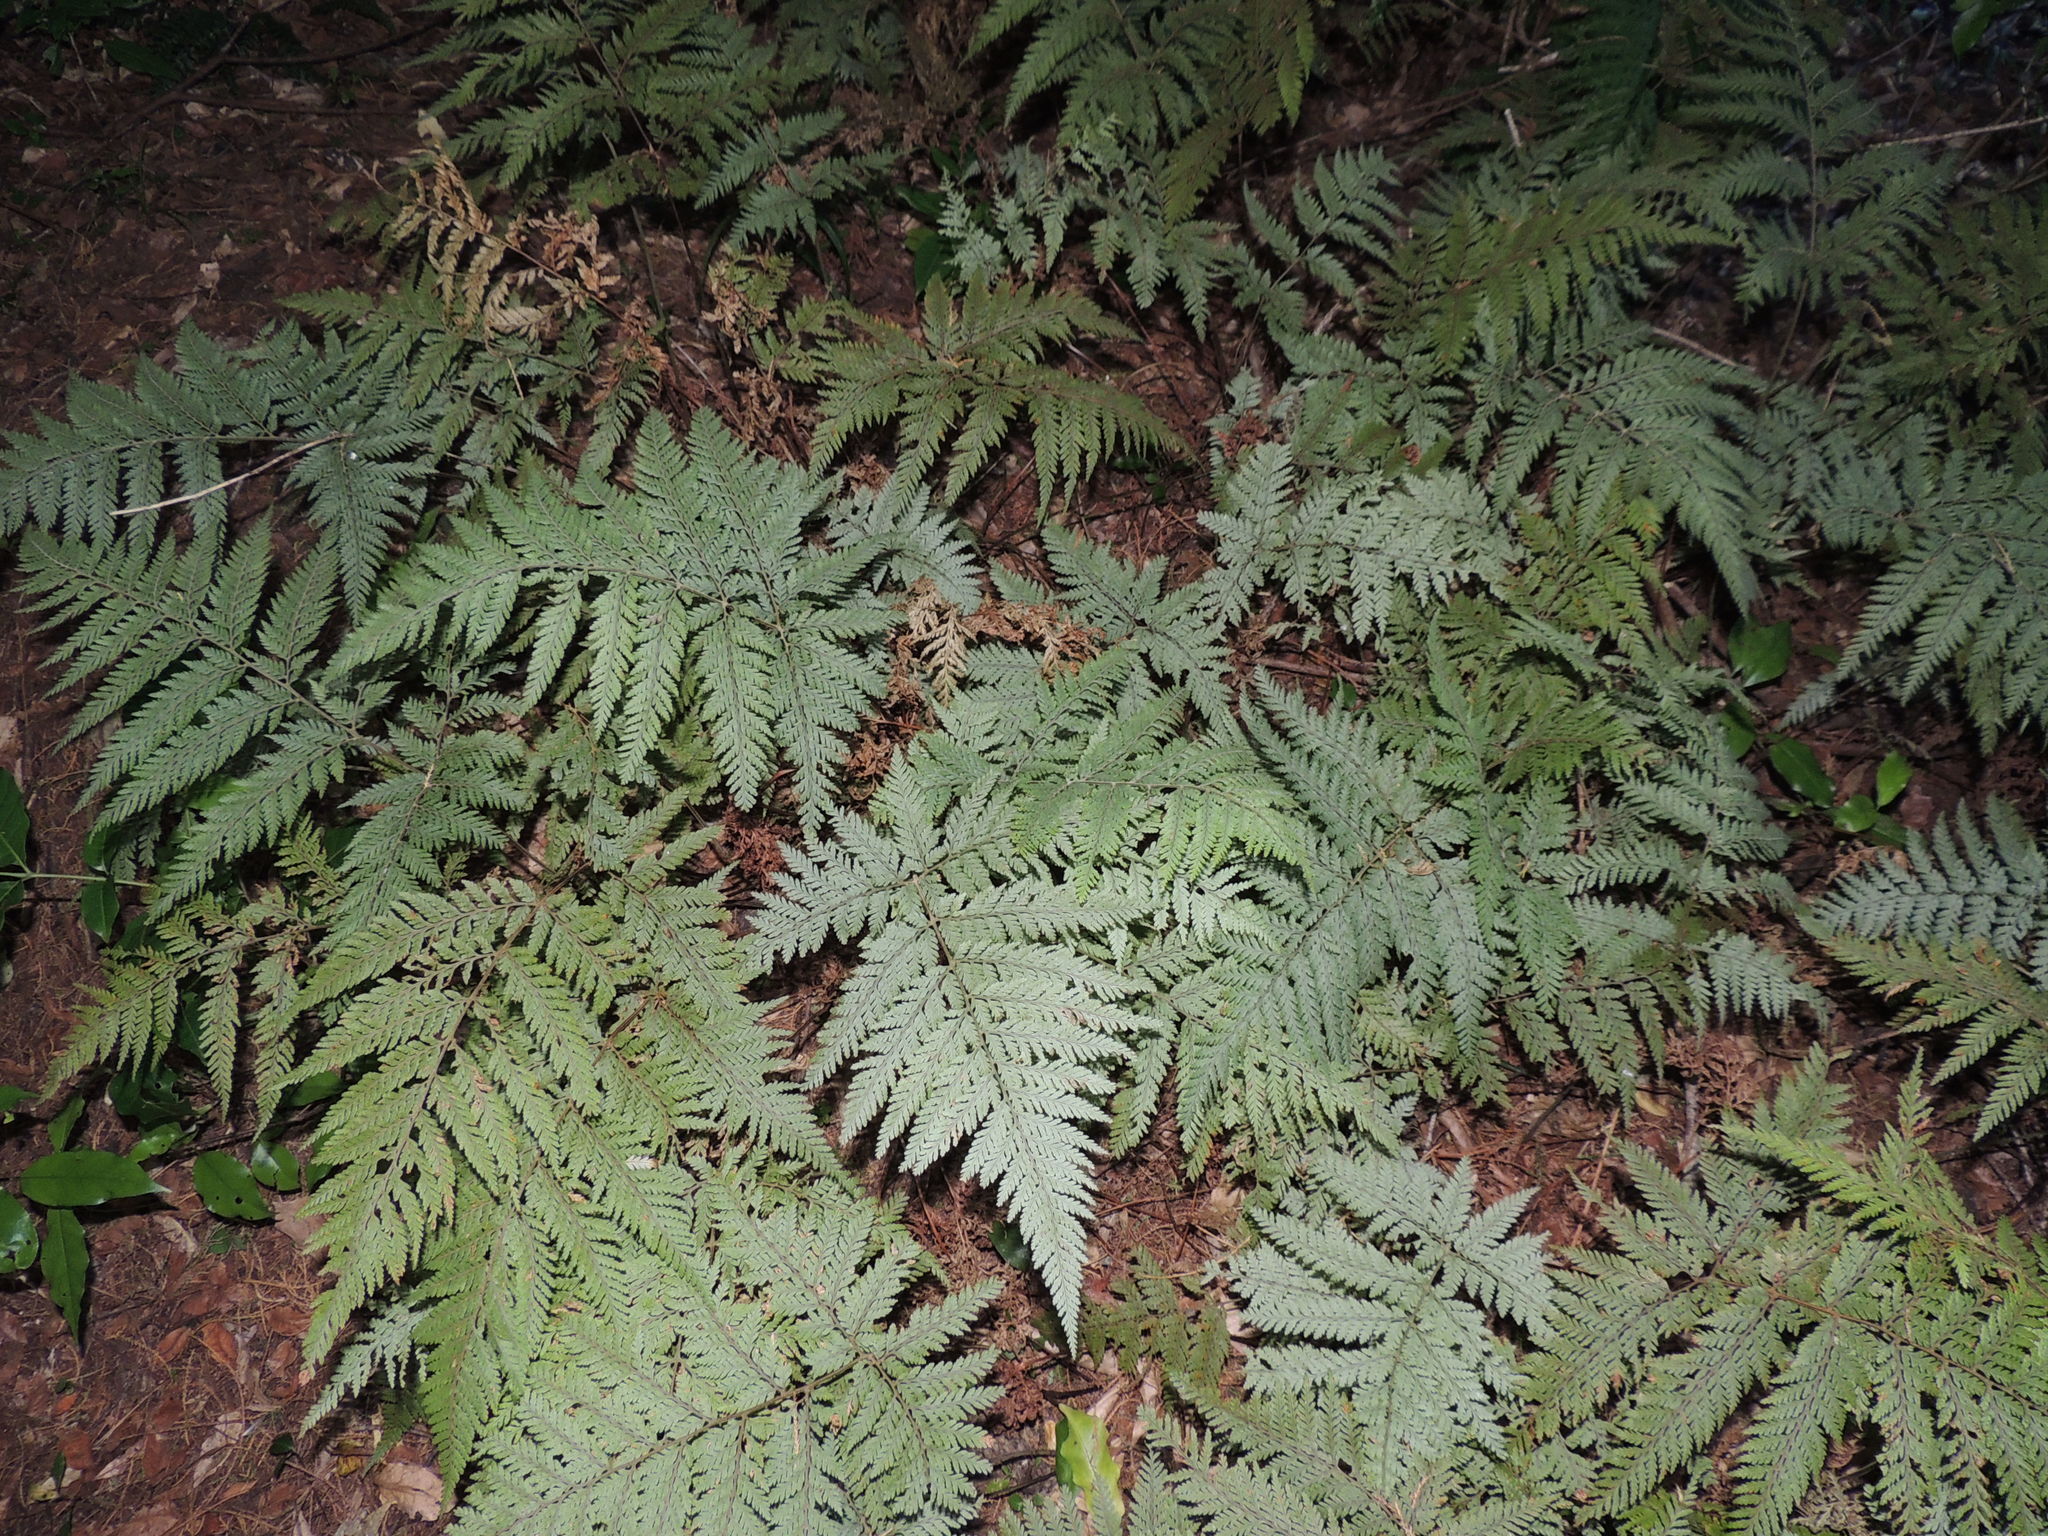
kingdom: Plantae
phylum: Tracheophyta
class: Polypodiopsida
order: Polypodiales
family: Dryopteridaceae
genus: Parapolystichum
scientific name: Parapolystichum glabellum
